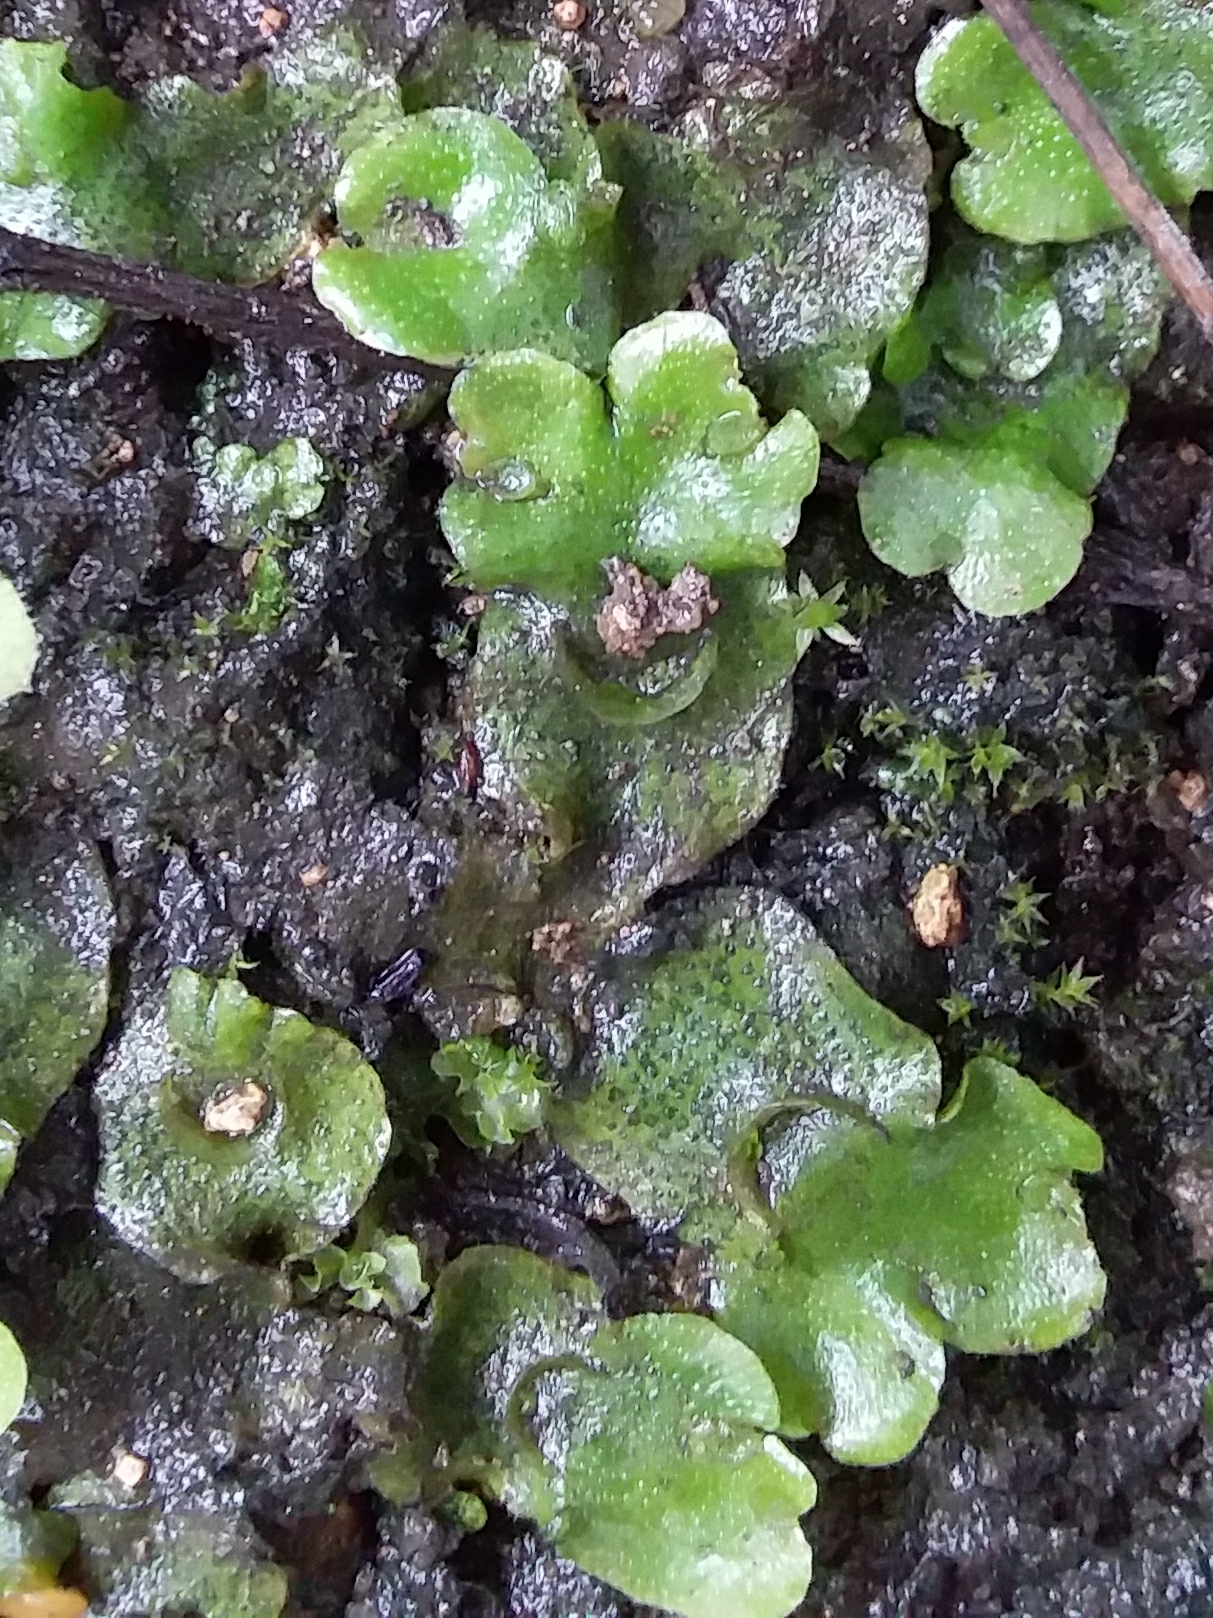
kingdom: Plantae
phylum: Marchantiophyta
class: Marchantiopsida
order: Lunulariales
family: Lunulariaceae
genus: Lunularia
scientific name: Lunularia cruciata
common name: Crescent-cup liverwort
